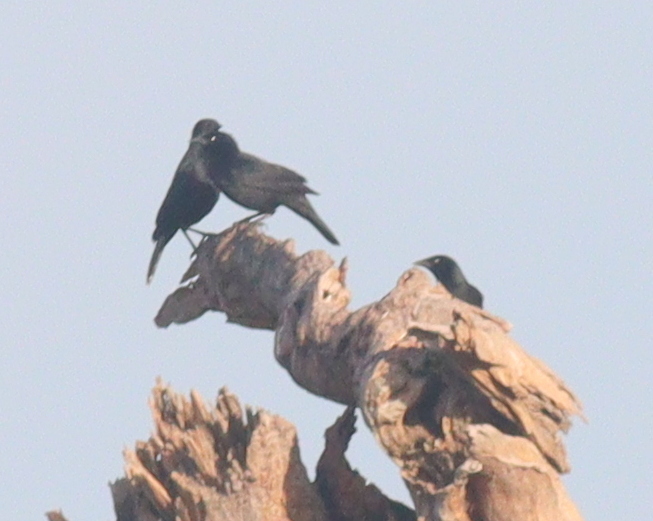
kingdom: Animalia
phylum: Chordata
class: Aves
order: Passeriformes
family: Icteridae
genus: Gnorimopsar
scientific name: Gnorimopsar chopi
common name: Chopi blackbird
